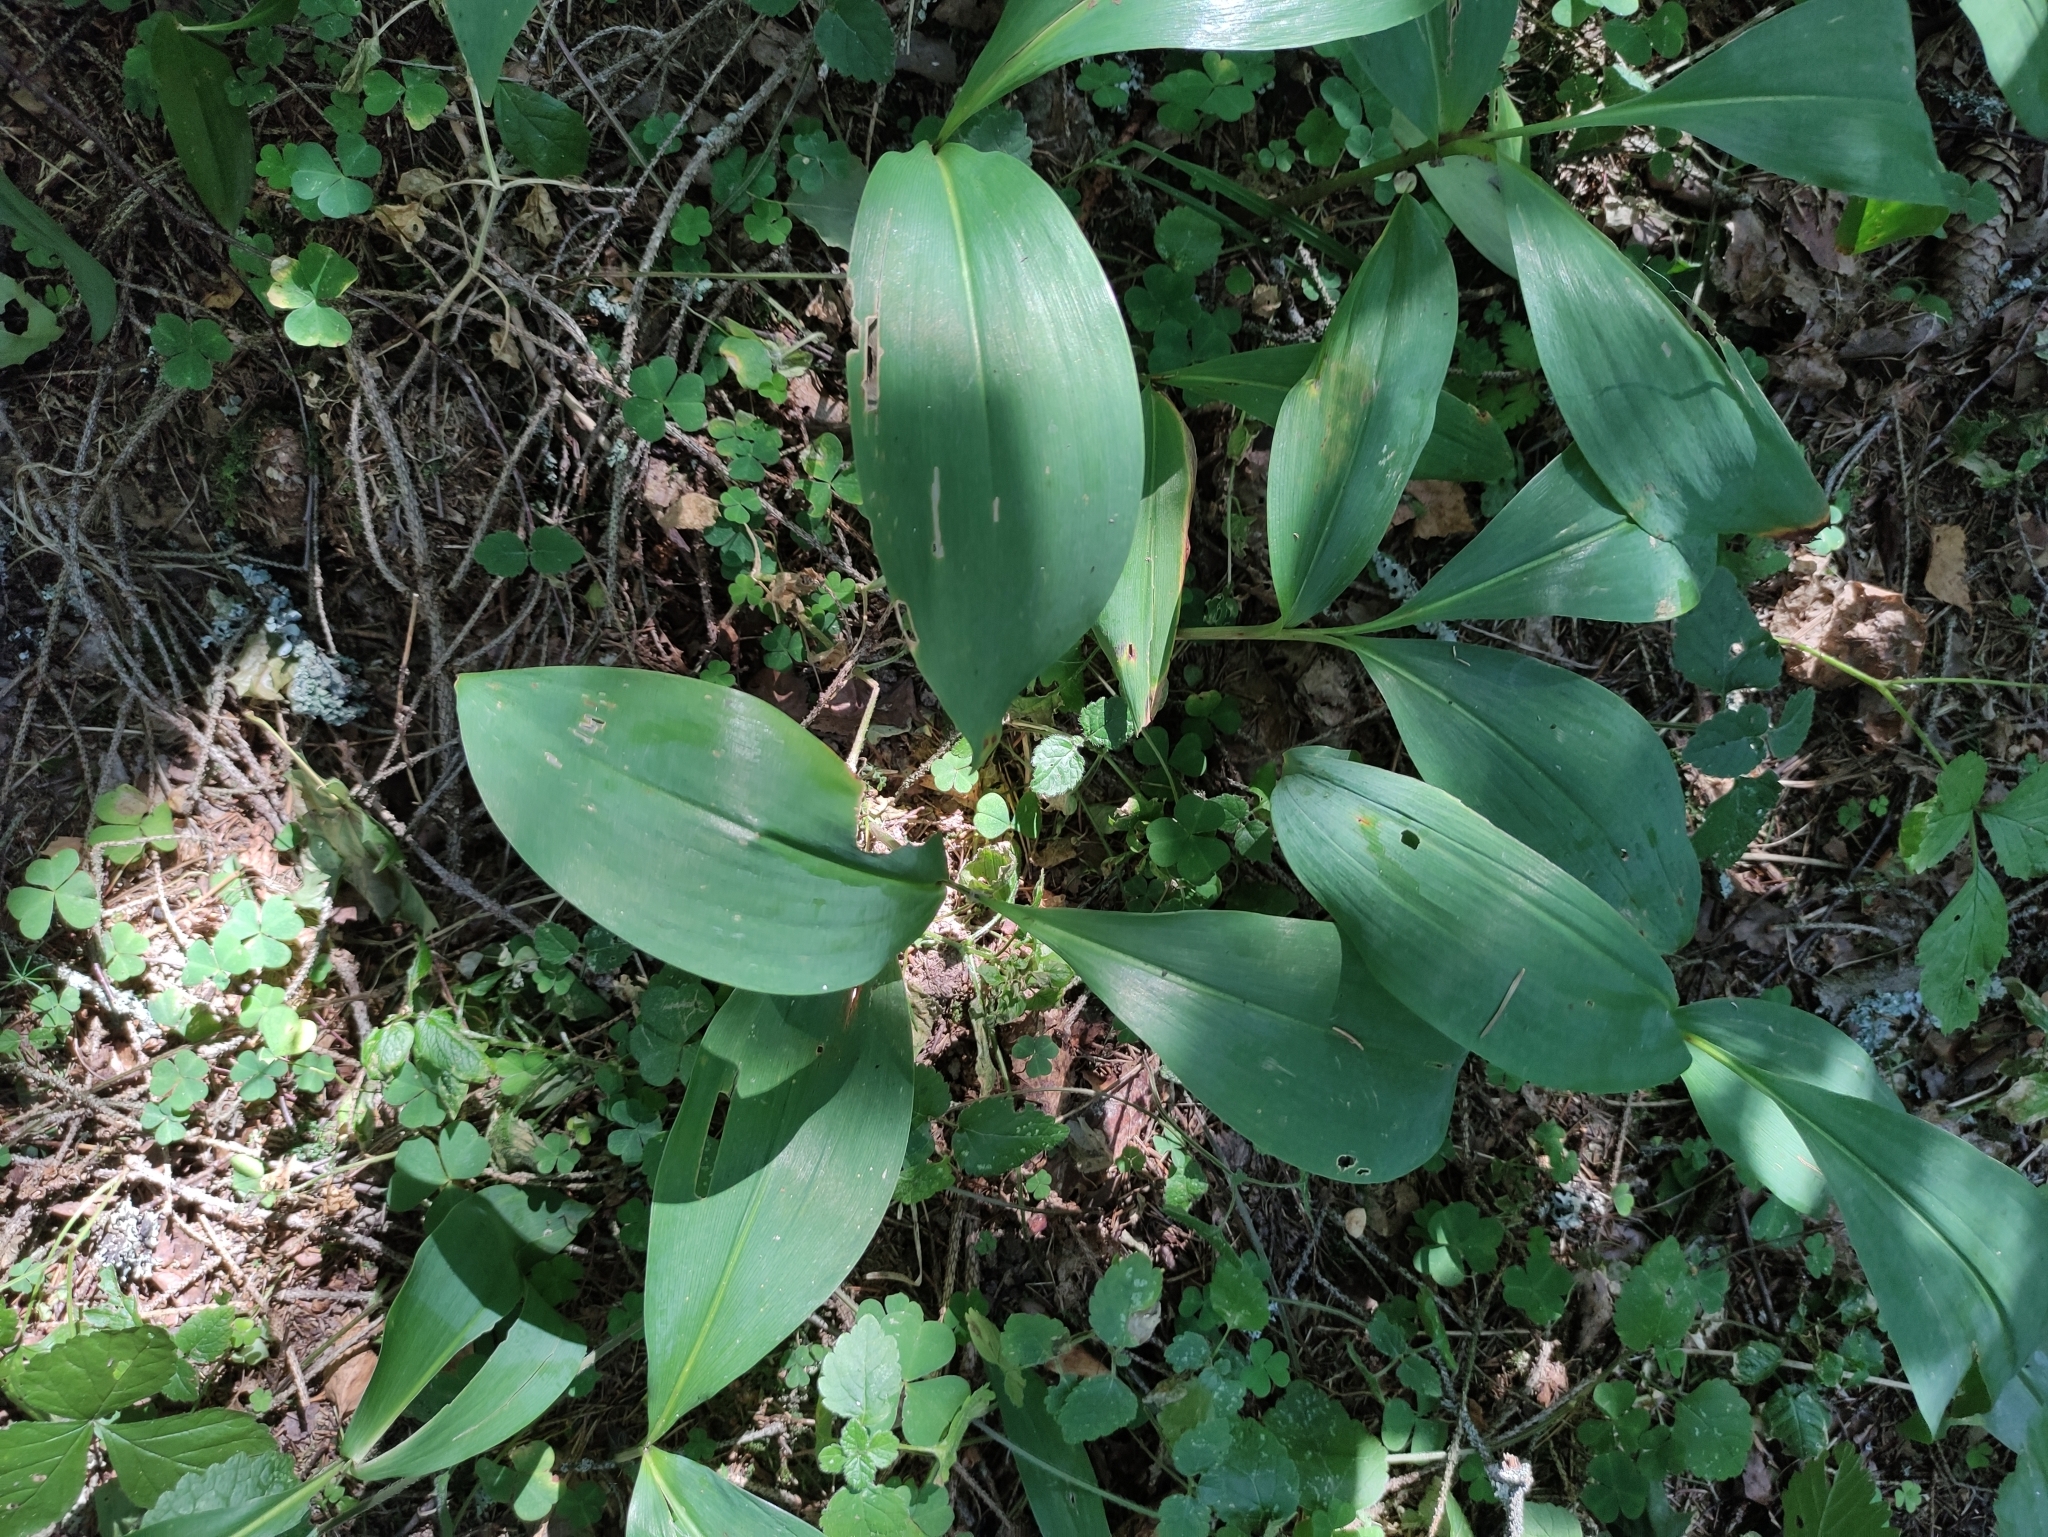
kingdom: Plantae
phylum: Tracheophyta
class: Liliopsida
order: Asparagales
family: Asparagaceae
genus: Convallaria
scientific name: Convallaria majalis
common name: Lily-of-the-valley
